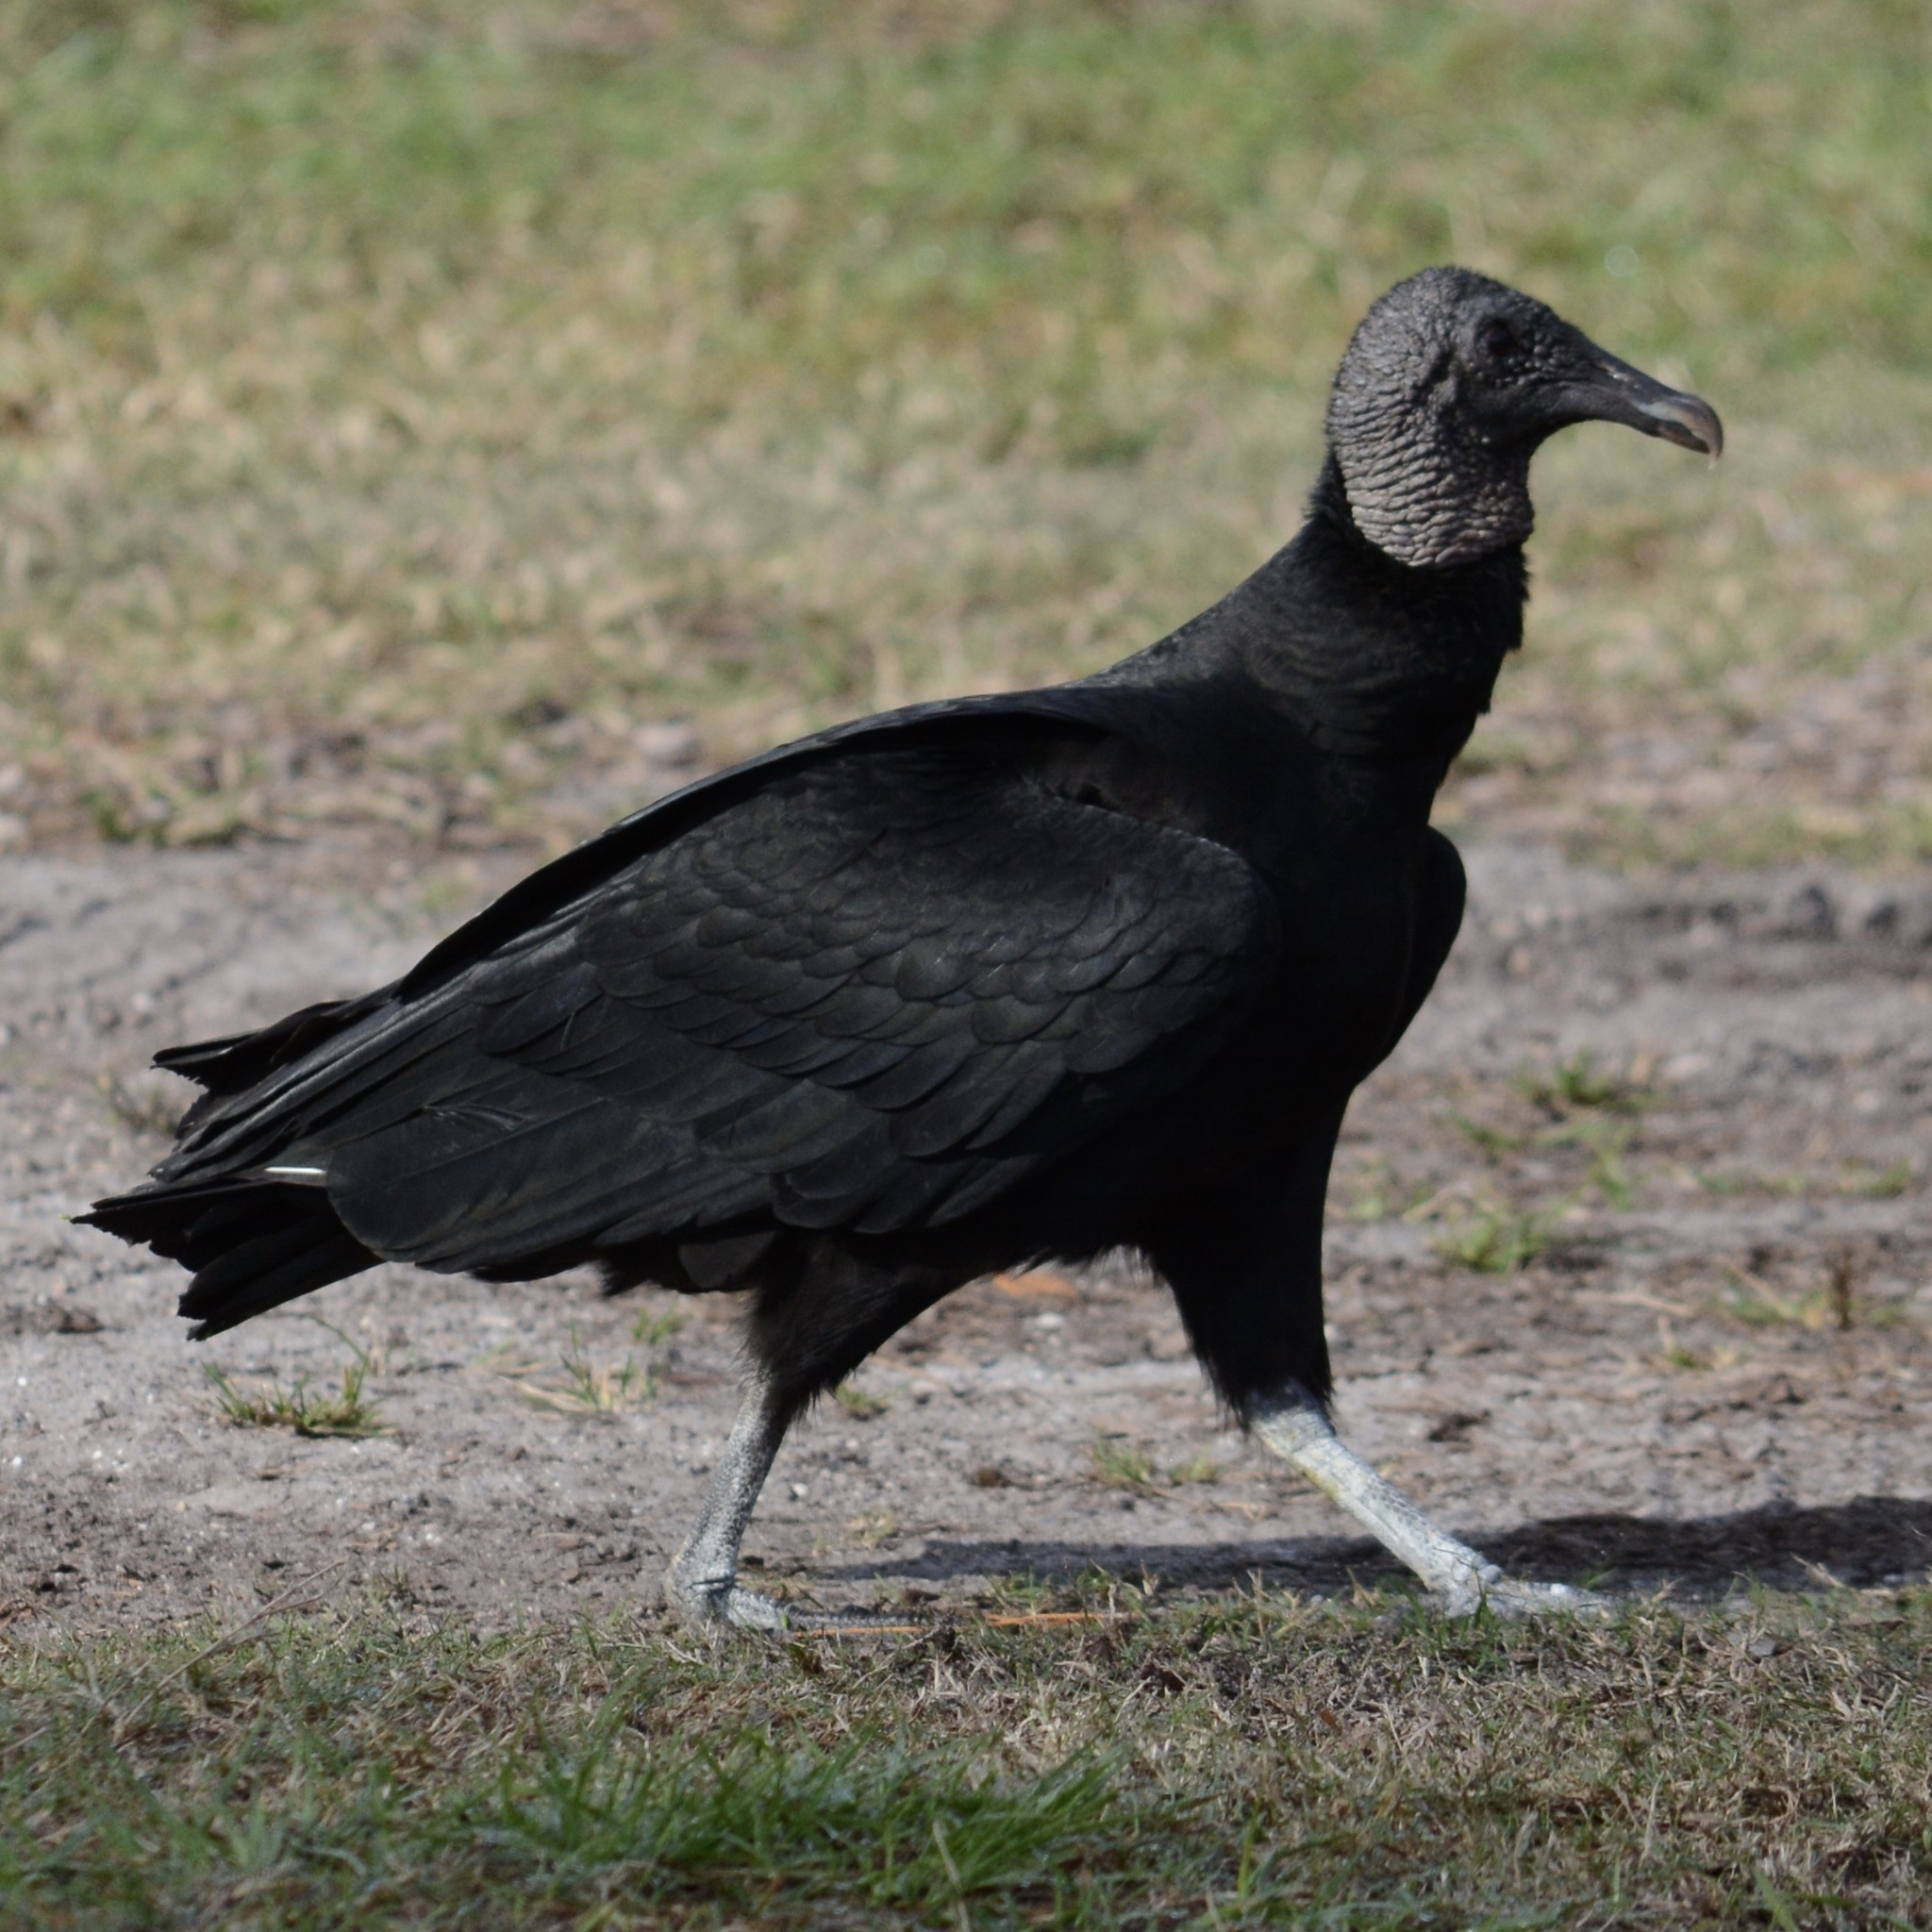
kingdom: Animalia
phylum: Chordata
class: Aves
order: Accipitriformes
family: Cathartidae
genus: Coragyps
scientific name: Coragyps atratus
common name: Black vulture
